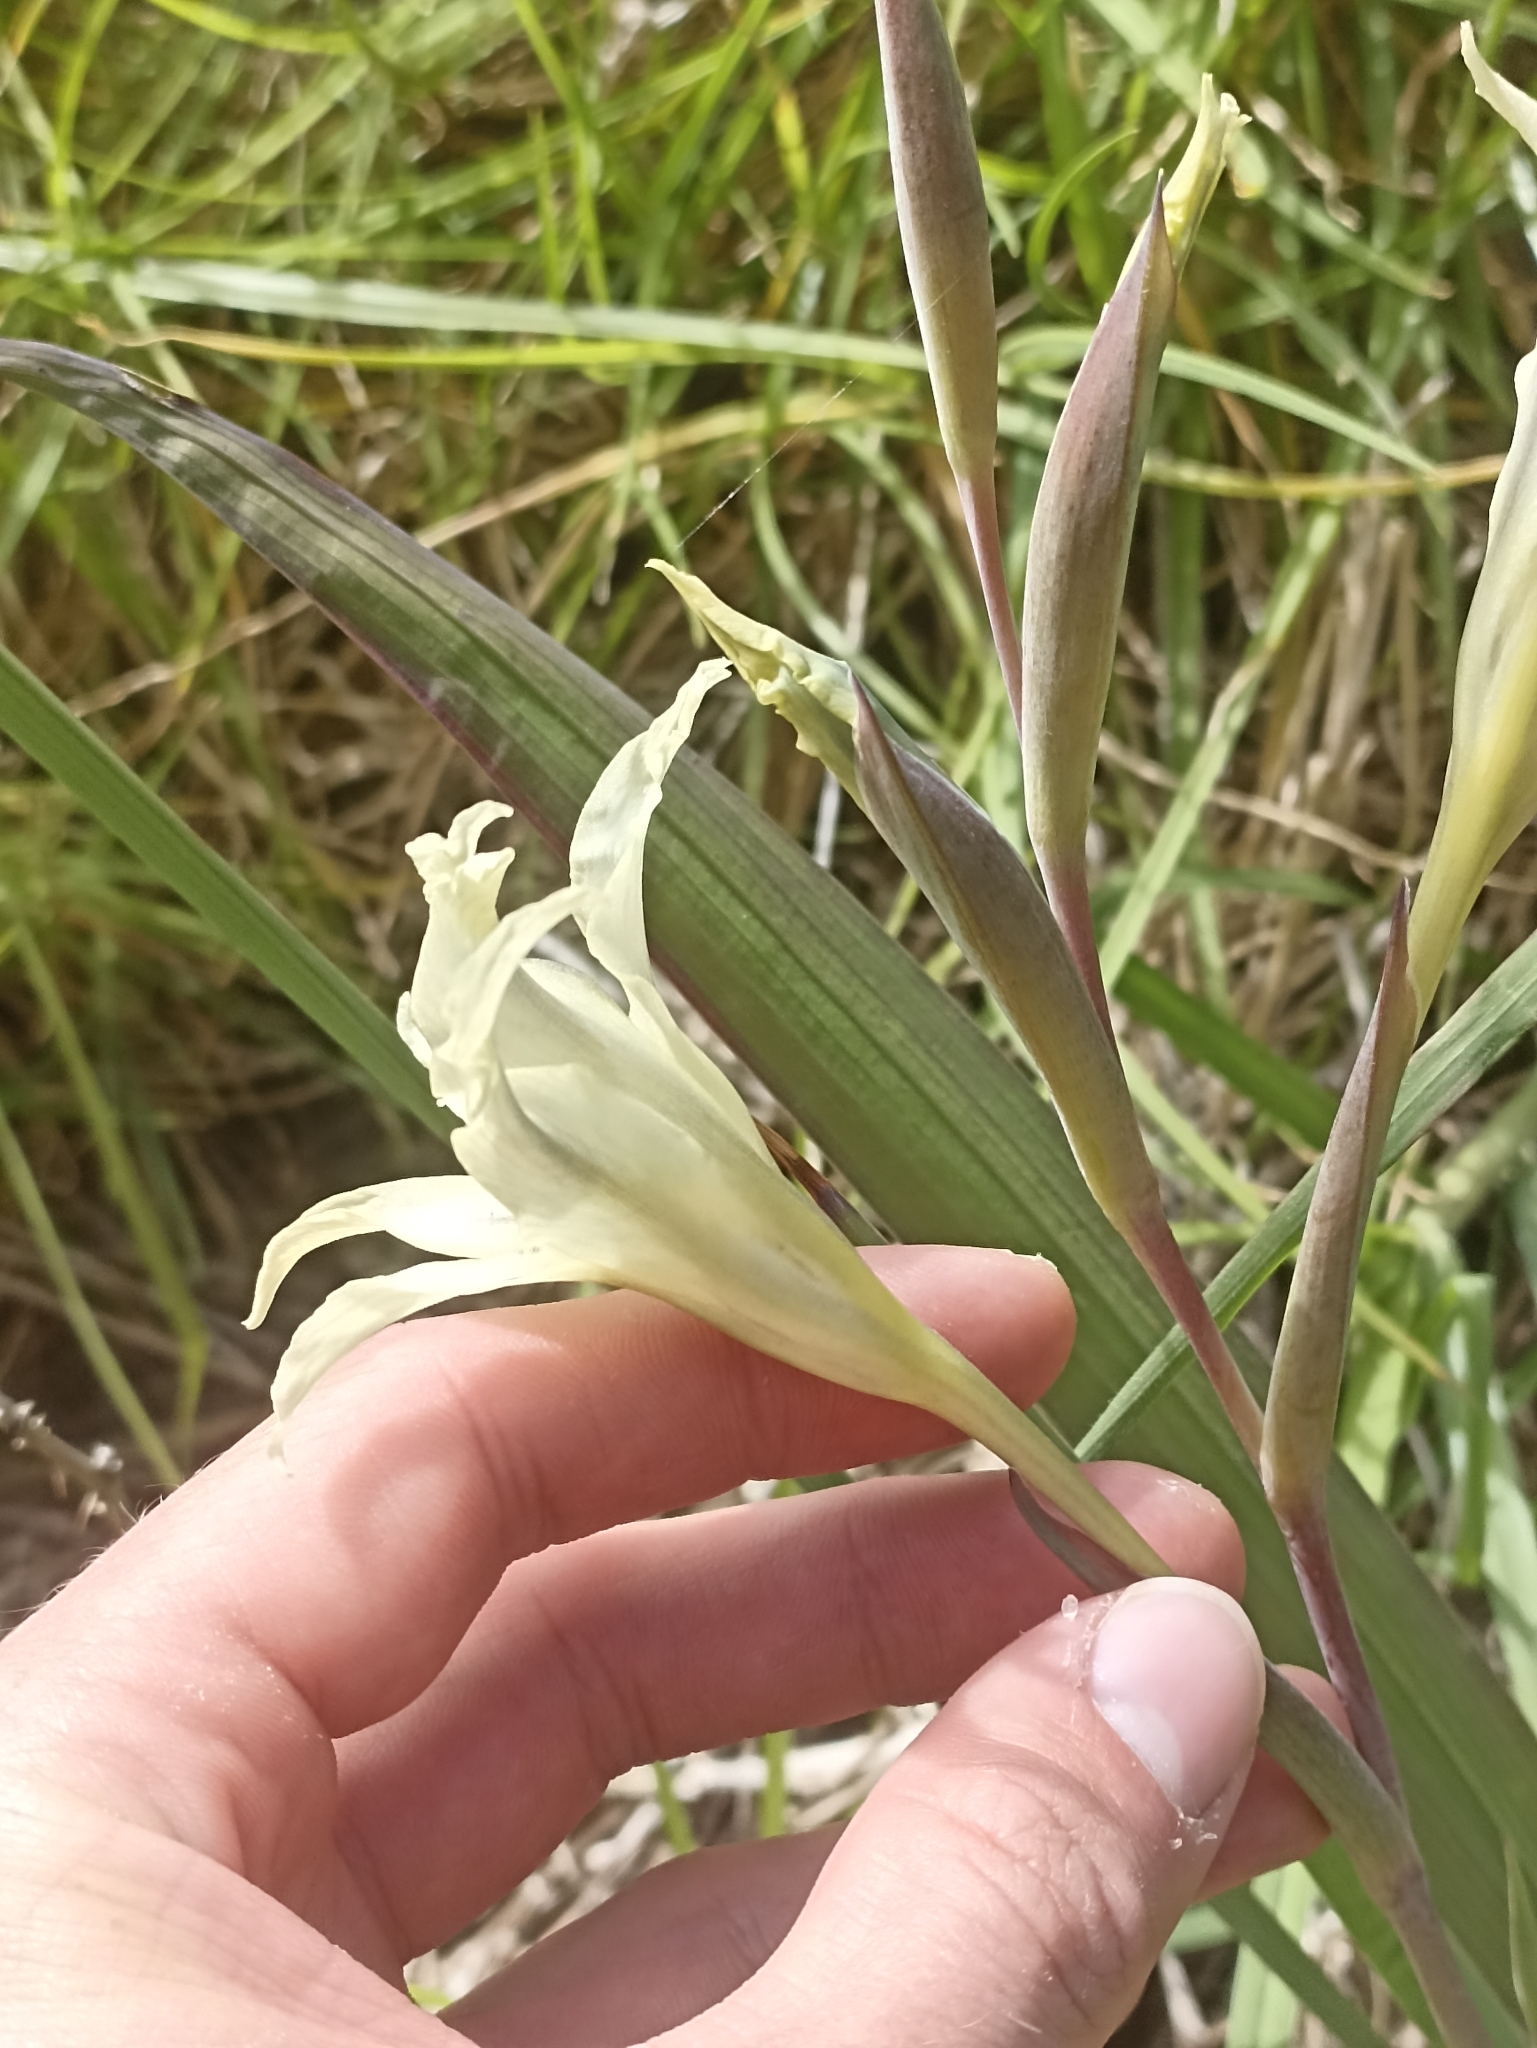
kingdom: Plantae
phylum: Tracheophyta
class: Liliopsida
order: Asparagales
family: Iridaceae
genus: Gladiolus
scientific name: Gladiolus undulatus
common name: Large painted-lady
